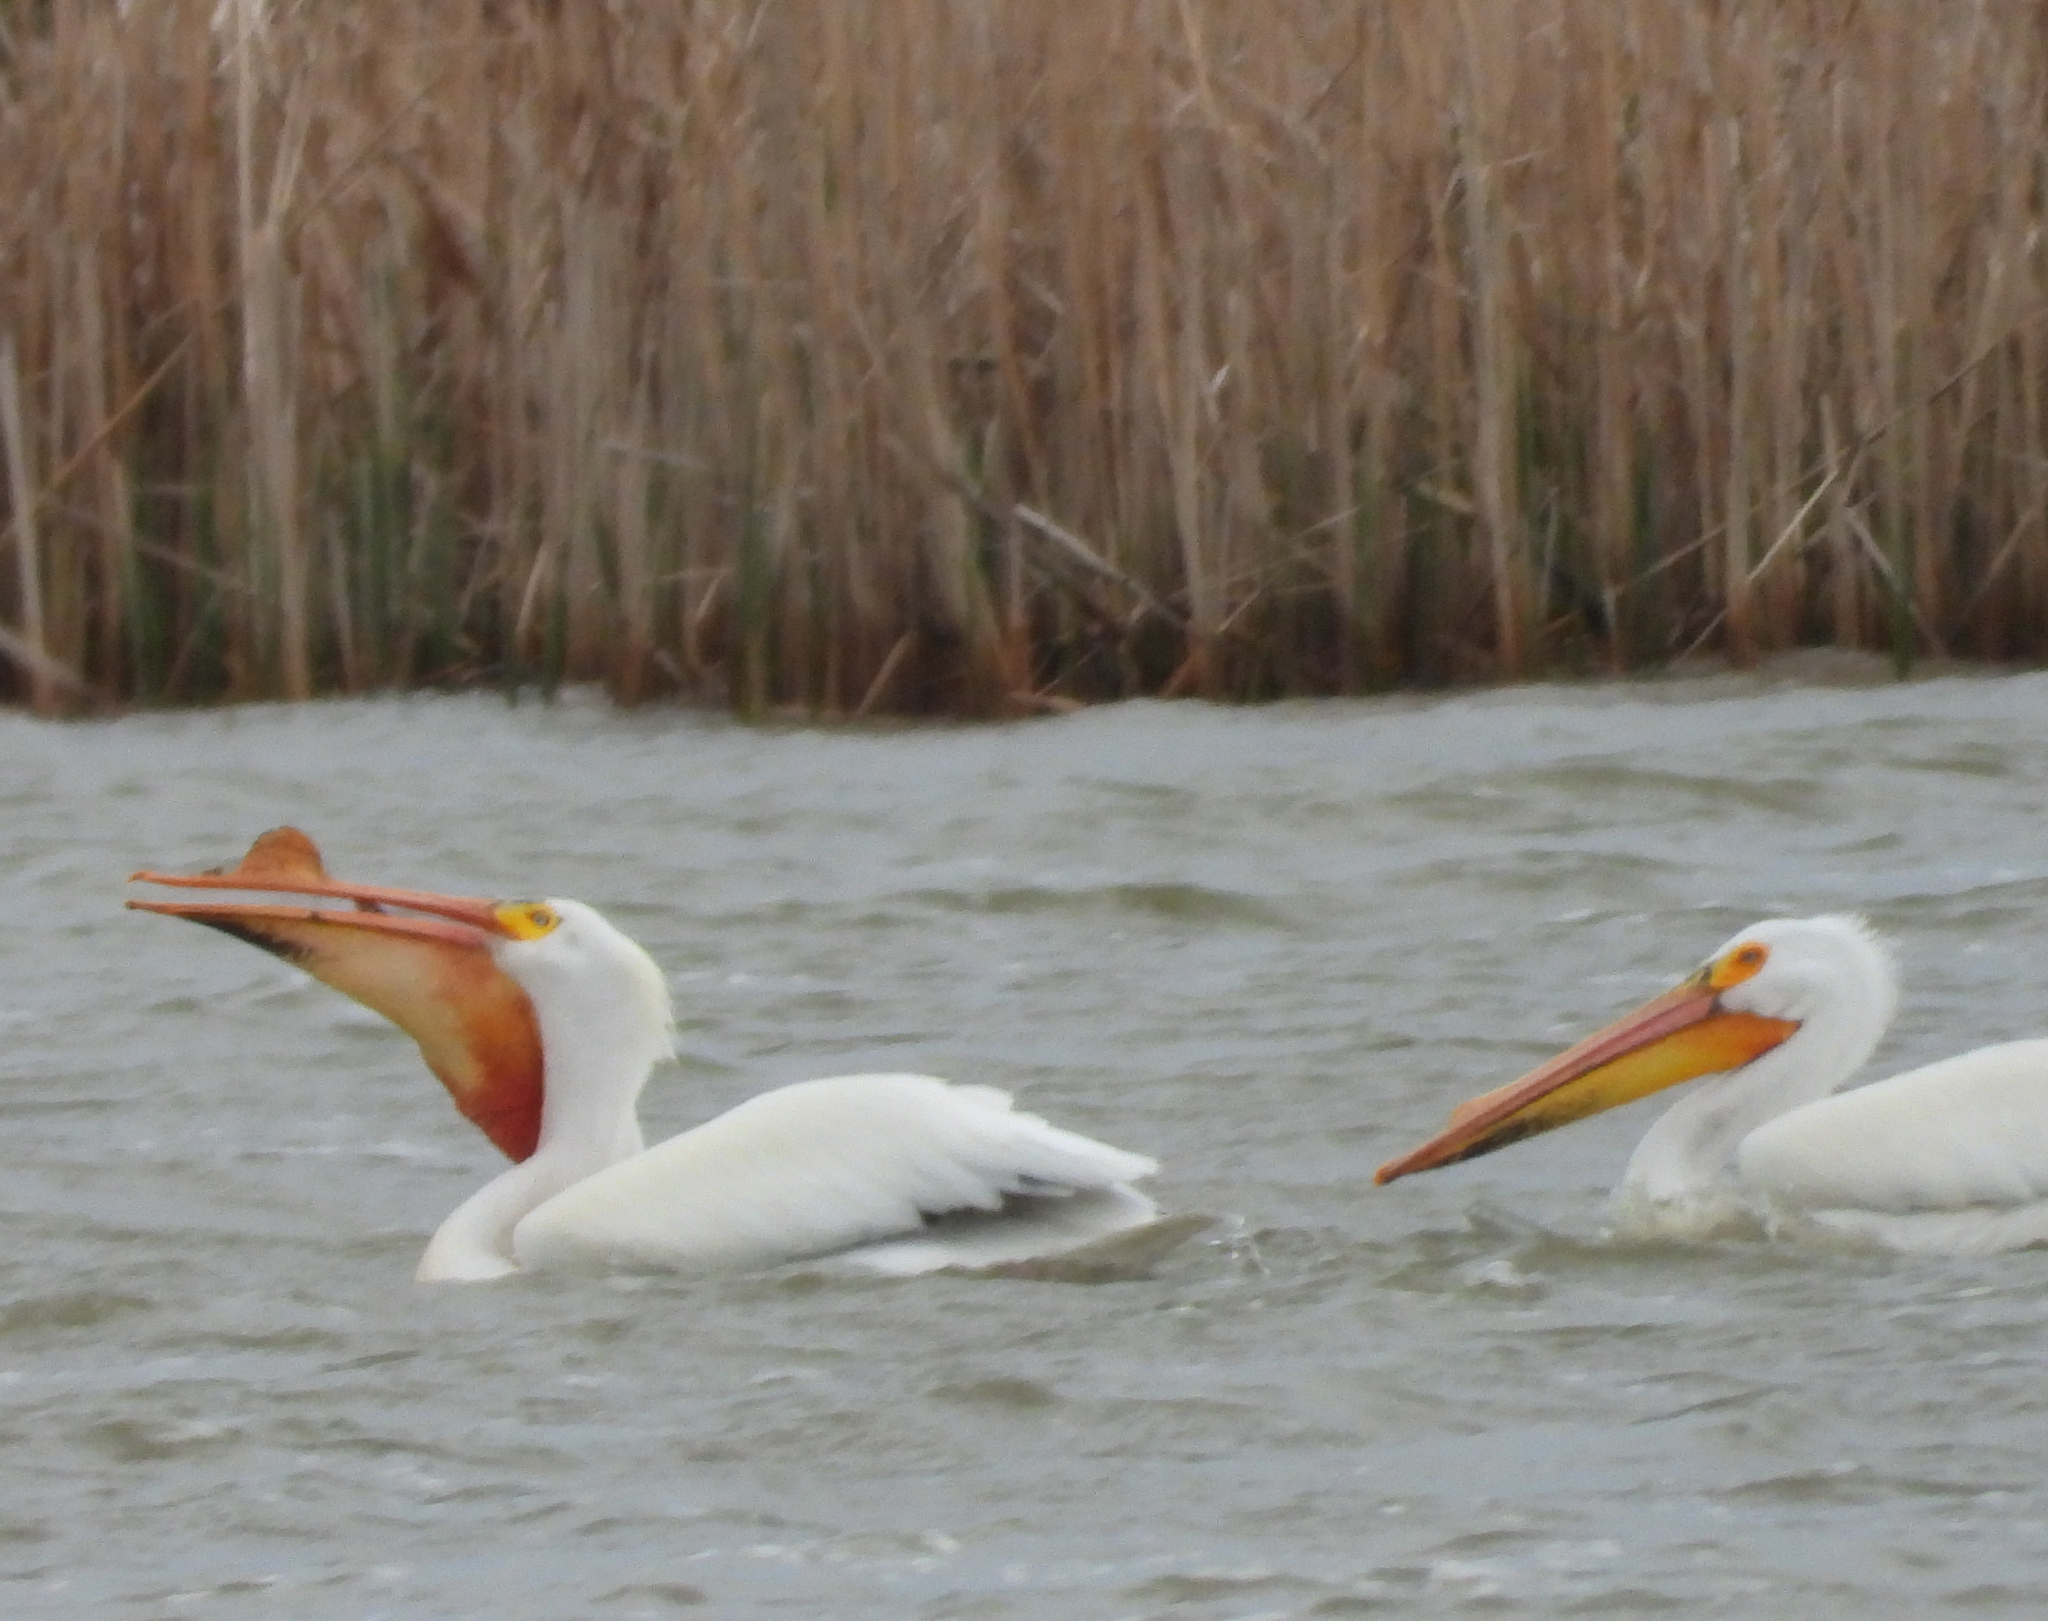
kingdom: Animalia
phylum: Chordata
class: Aves
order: Pelecaniformes
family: Pelecanidae
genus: Pelecanus
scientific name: Pelecanus erythrorhynchos
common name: American white pelican
